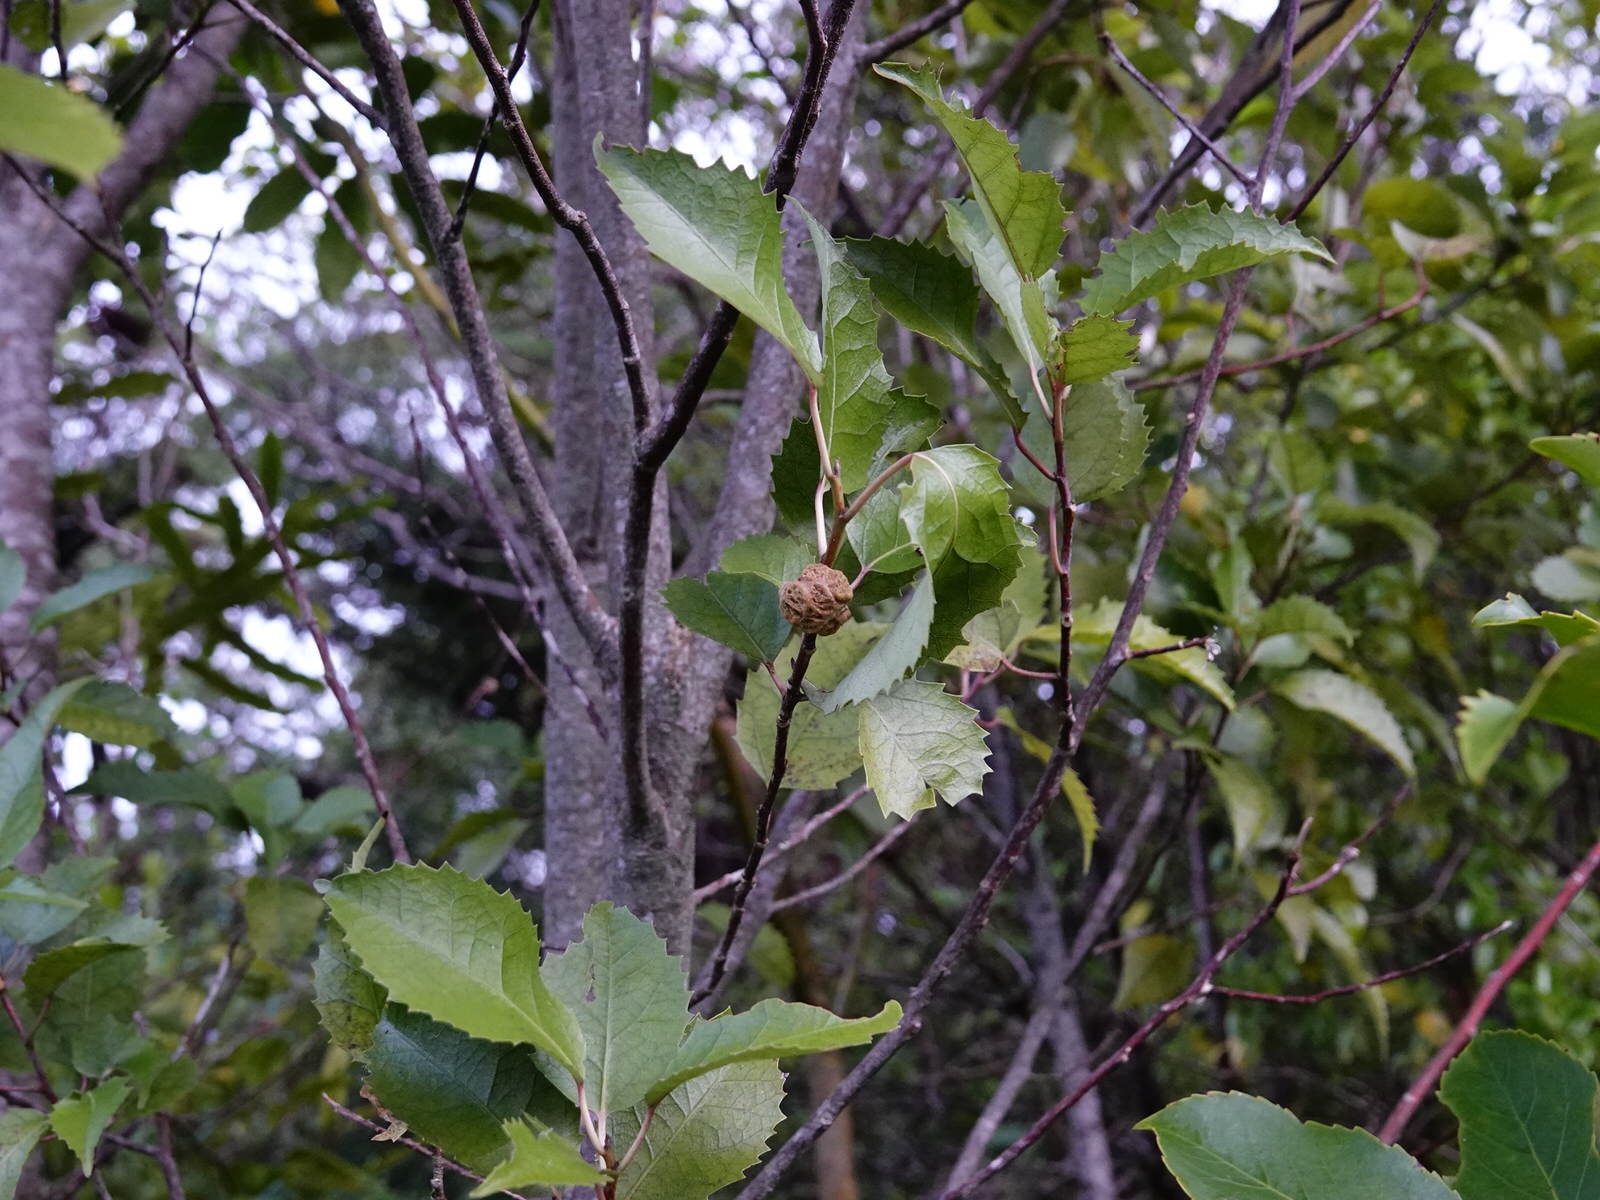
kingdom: Animalia
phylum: Arthropoda
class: Arachnida
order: Trombidiformes
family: Eriophyidae
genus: Eriophyes
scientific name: Eriophyes hoheriae
